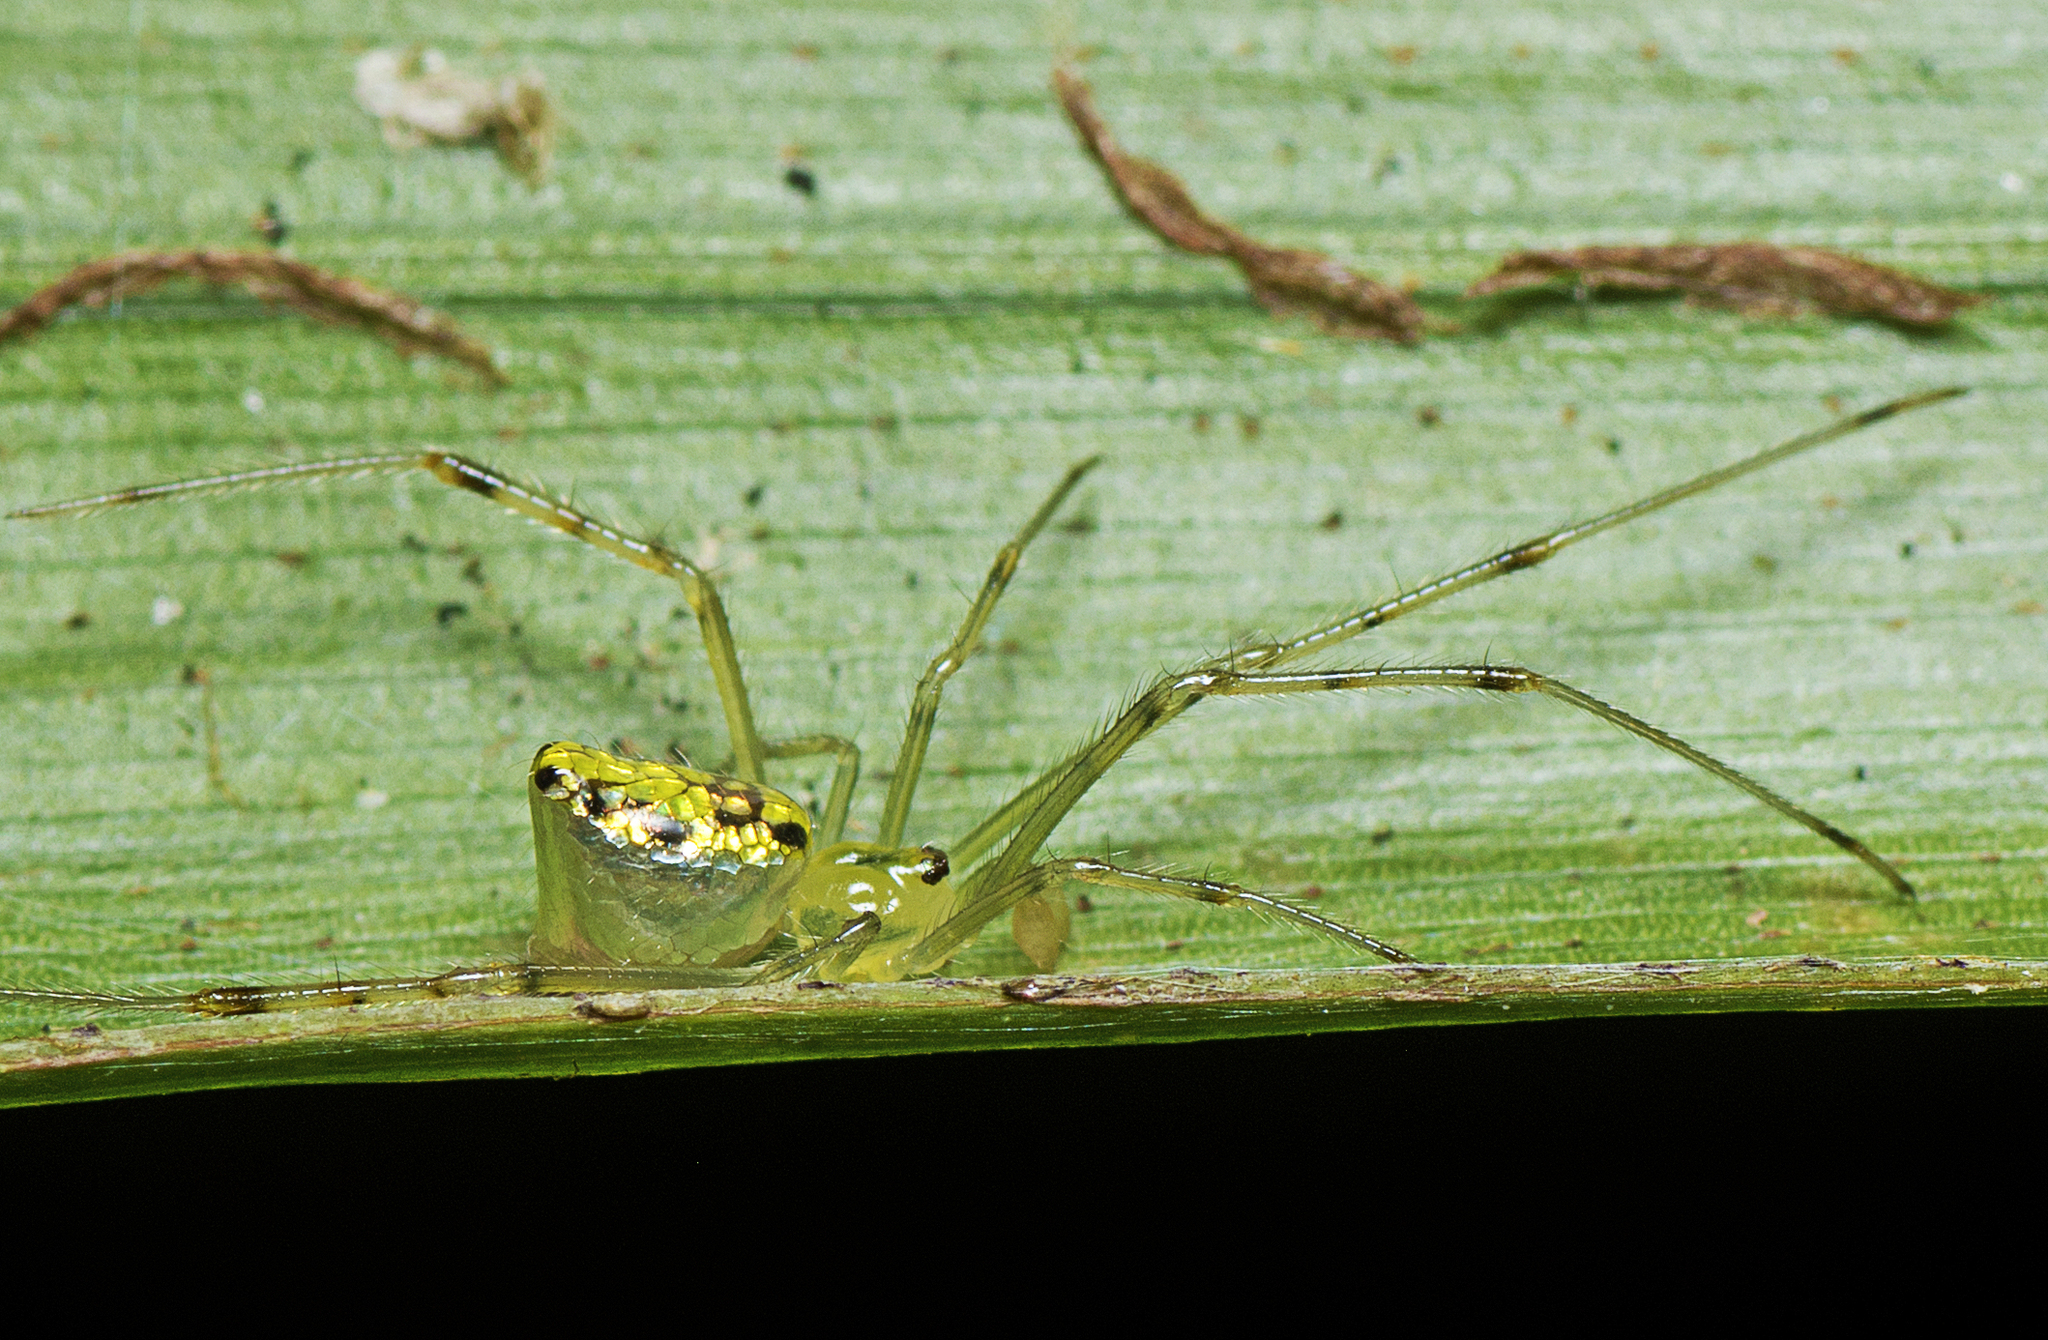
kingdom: Animalia
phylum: Arthropoda
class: Arachnida
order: Araneae
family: Theridiidae
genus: Thwaitesia
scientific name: Thwaitesia nigronodosa
